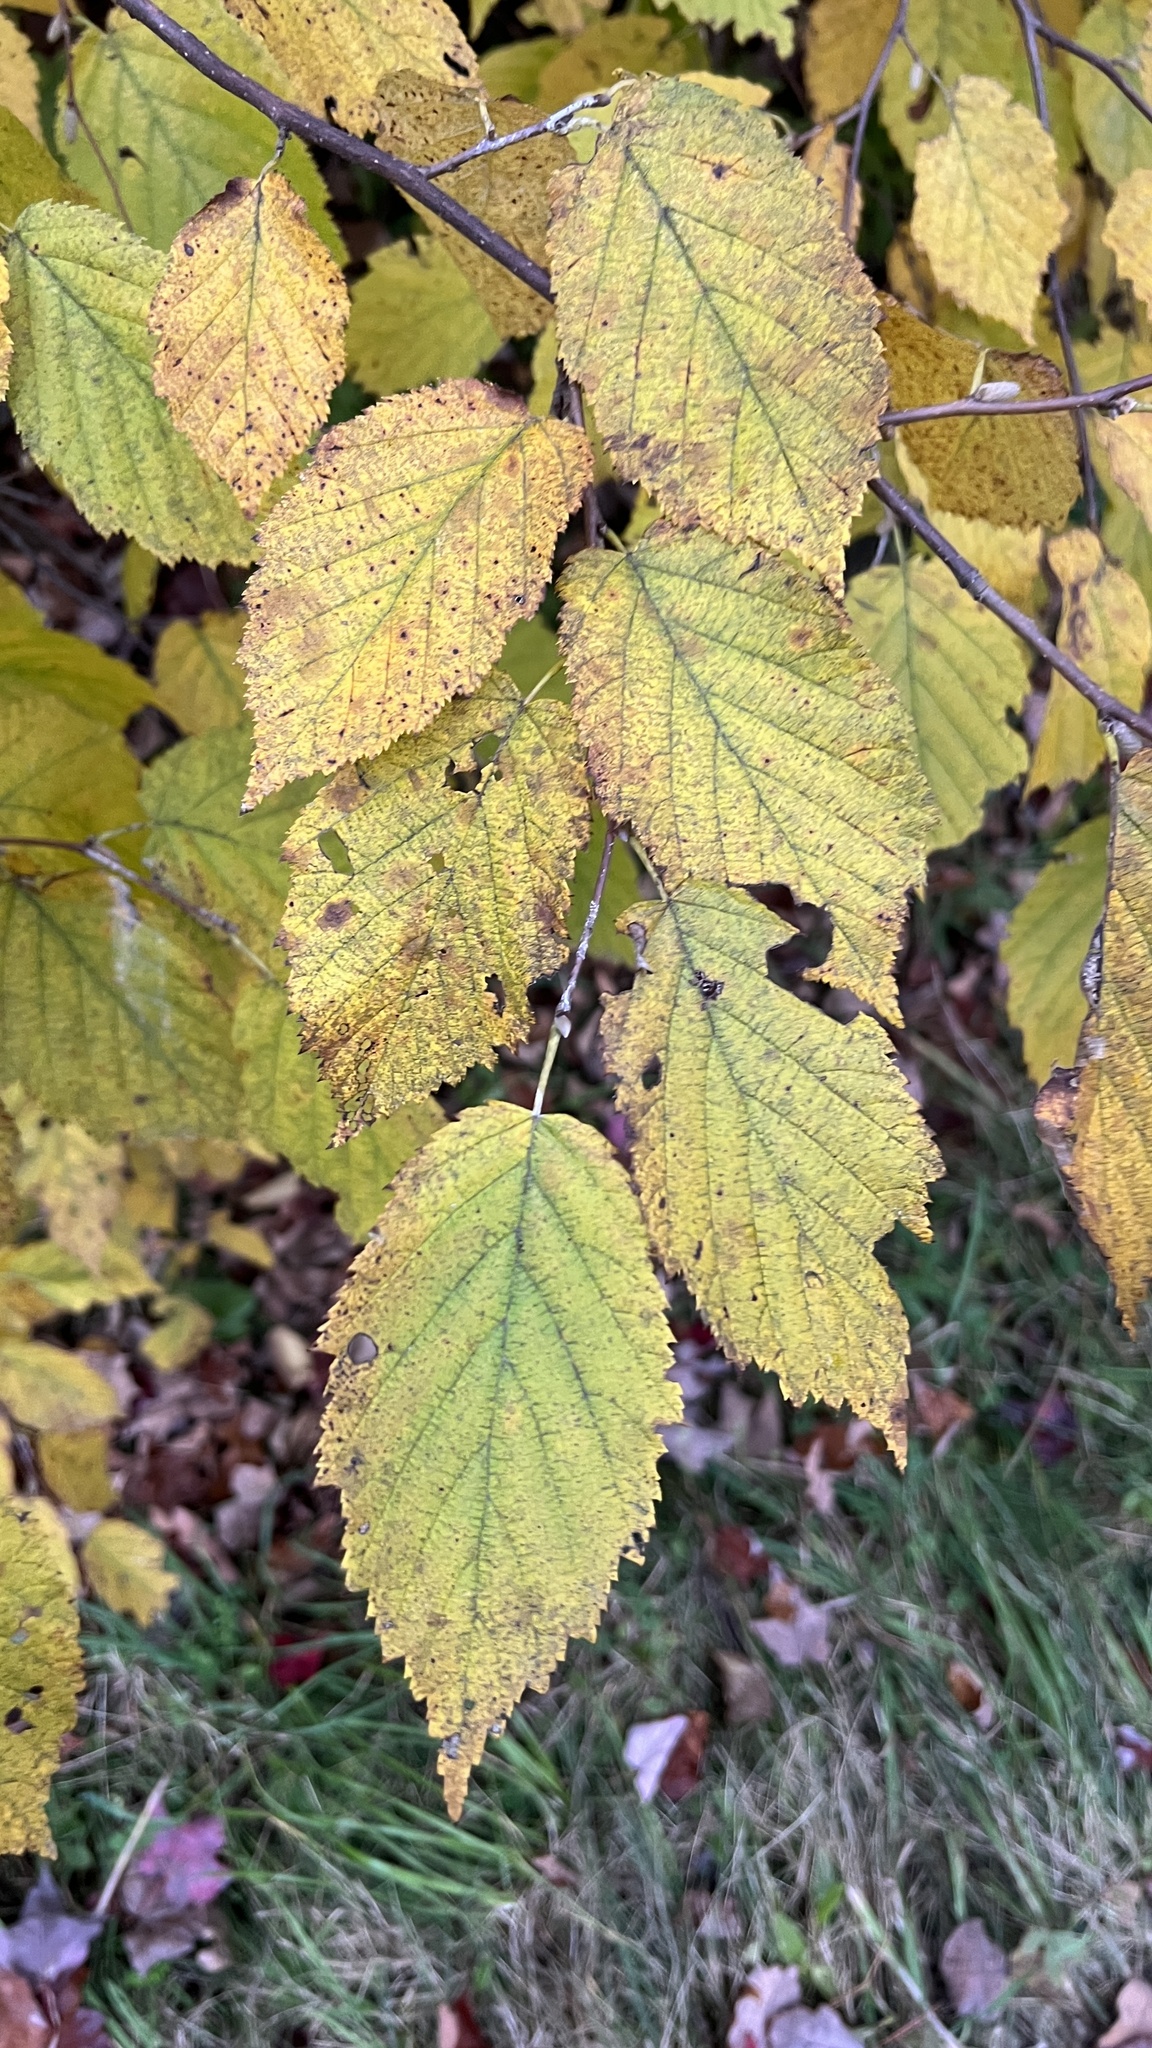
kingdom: Plantae
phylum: Tracheophyta
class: Magnoliopsida
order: Fagales
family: Betulaceae
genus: Corylus
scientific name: Corylus cornuta
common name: Beaked hazel
